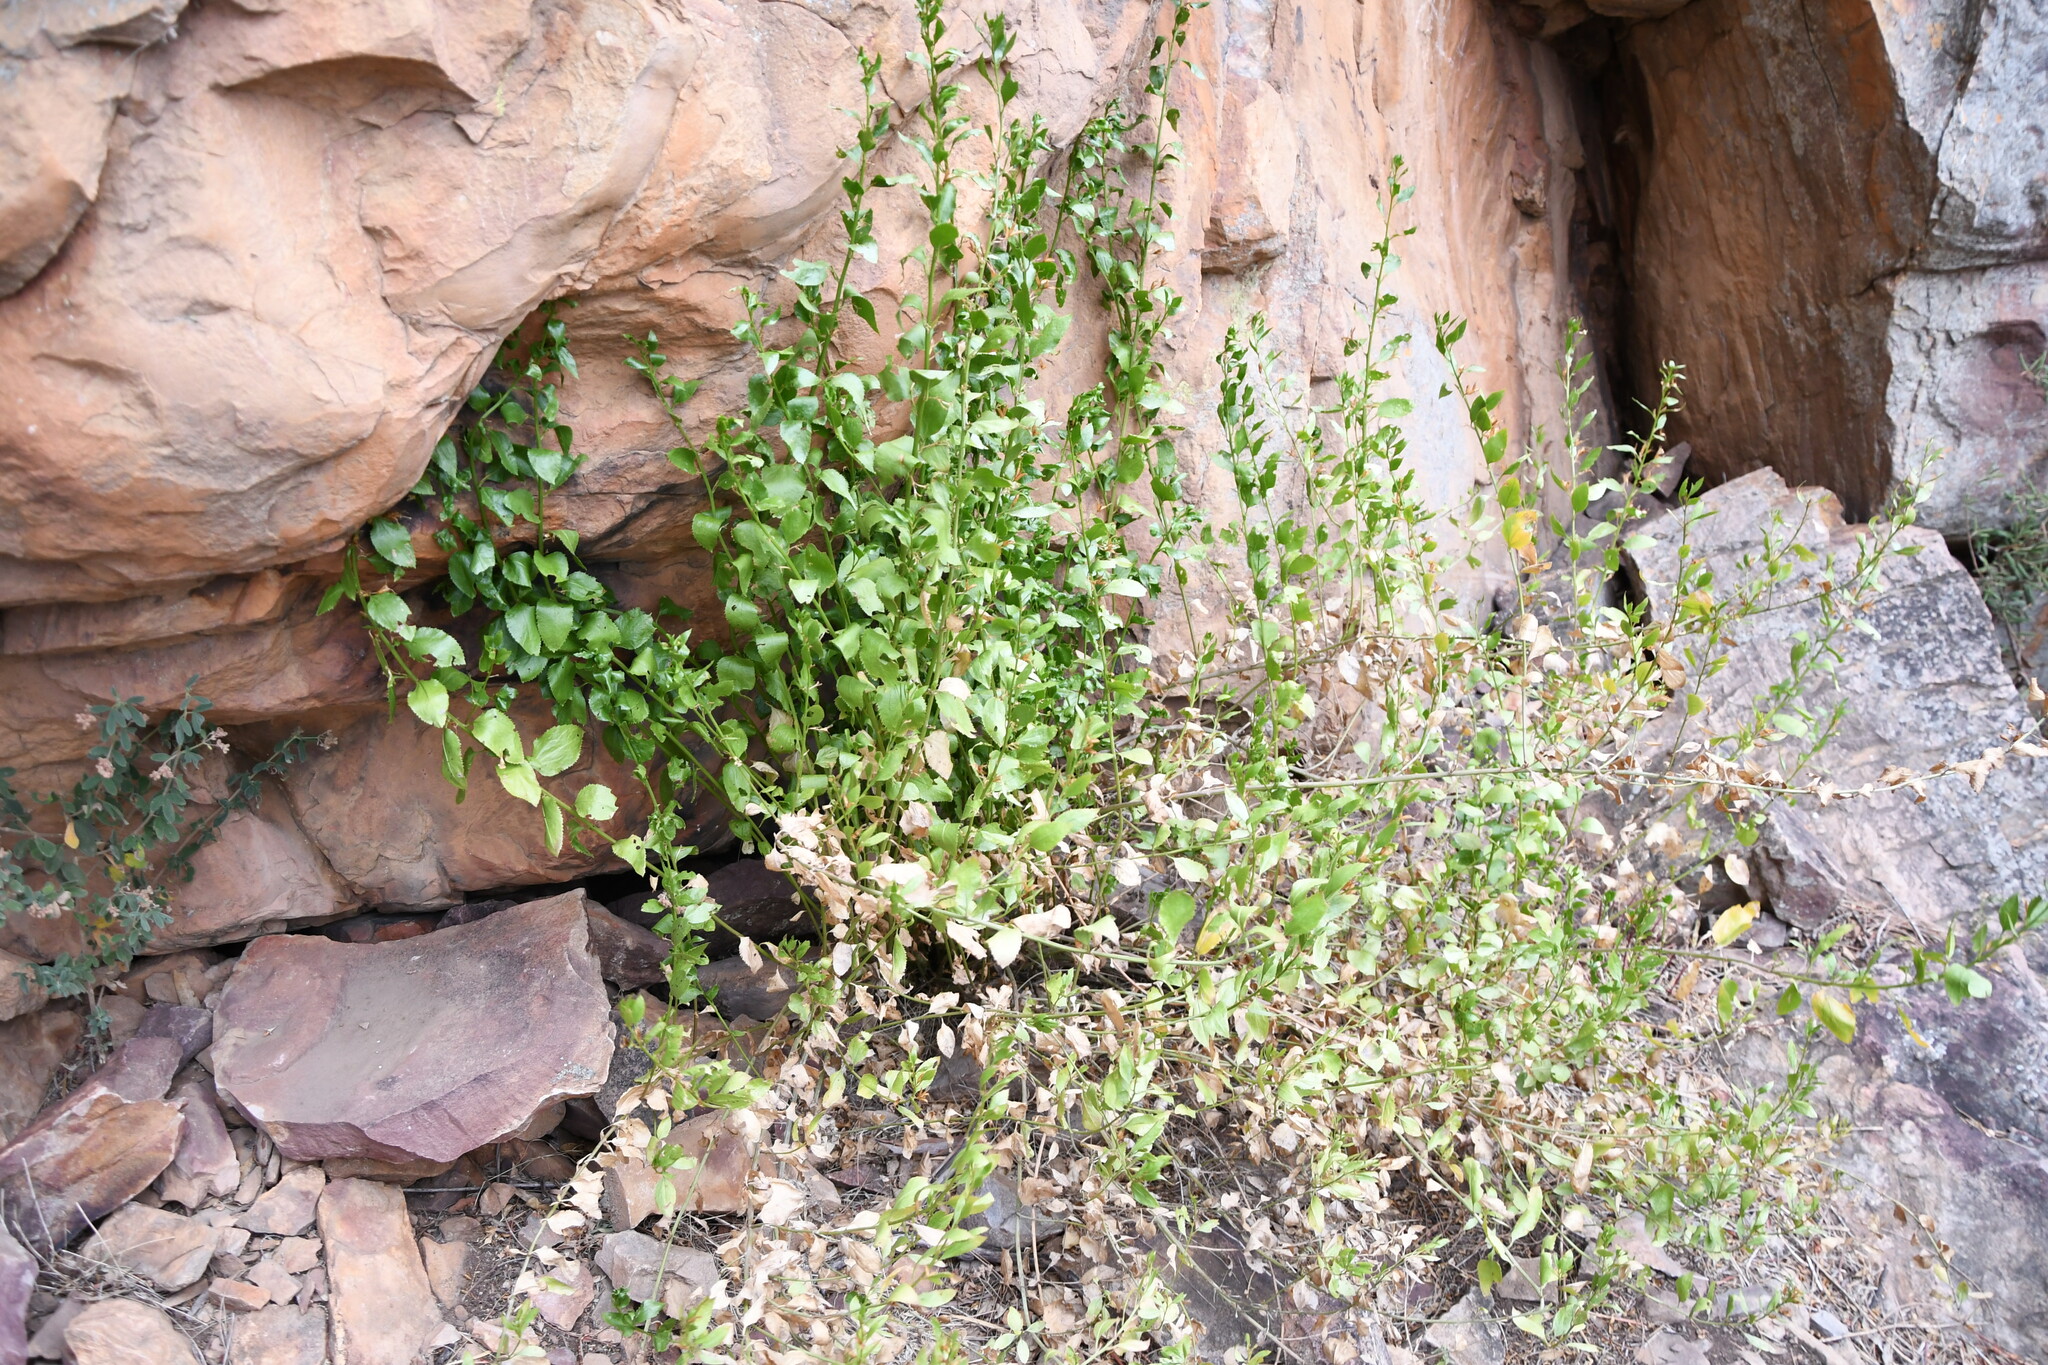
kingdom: Plantae
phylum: Tracheophyta
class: Magnoliopsida
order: Asterales
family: Goodeniaceae
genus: Goodenia
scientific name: Goodenia ovata
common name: Hop goodenia
